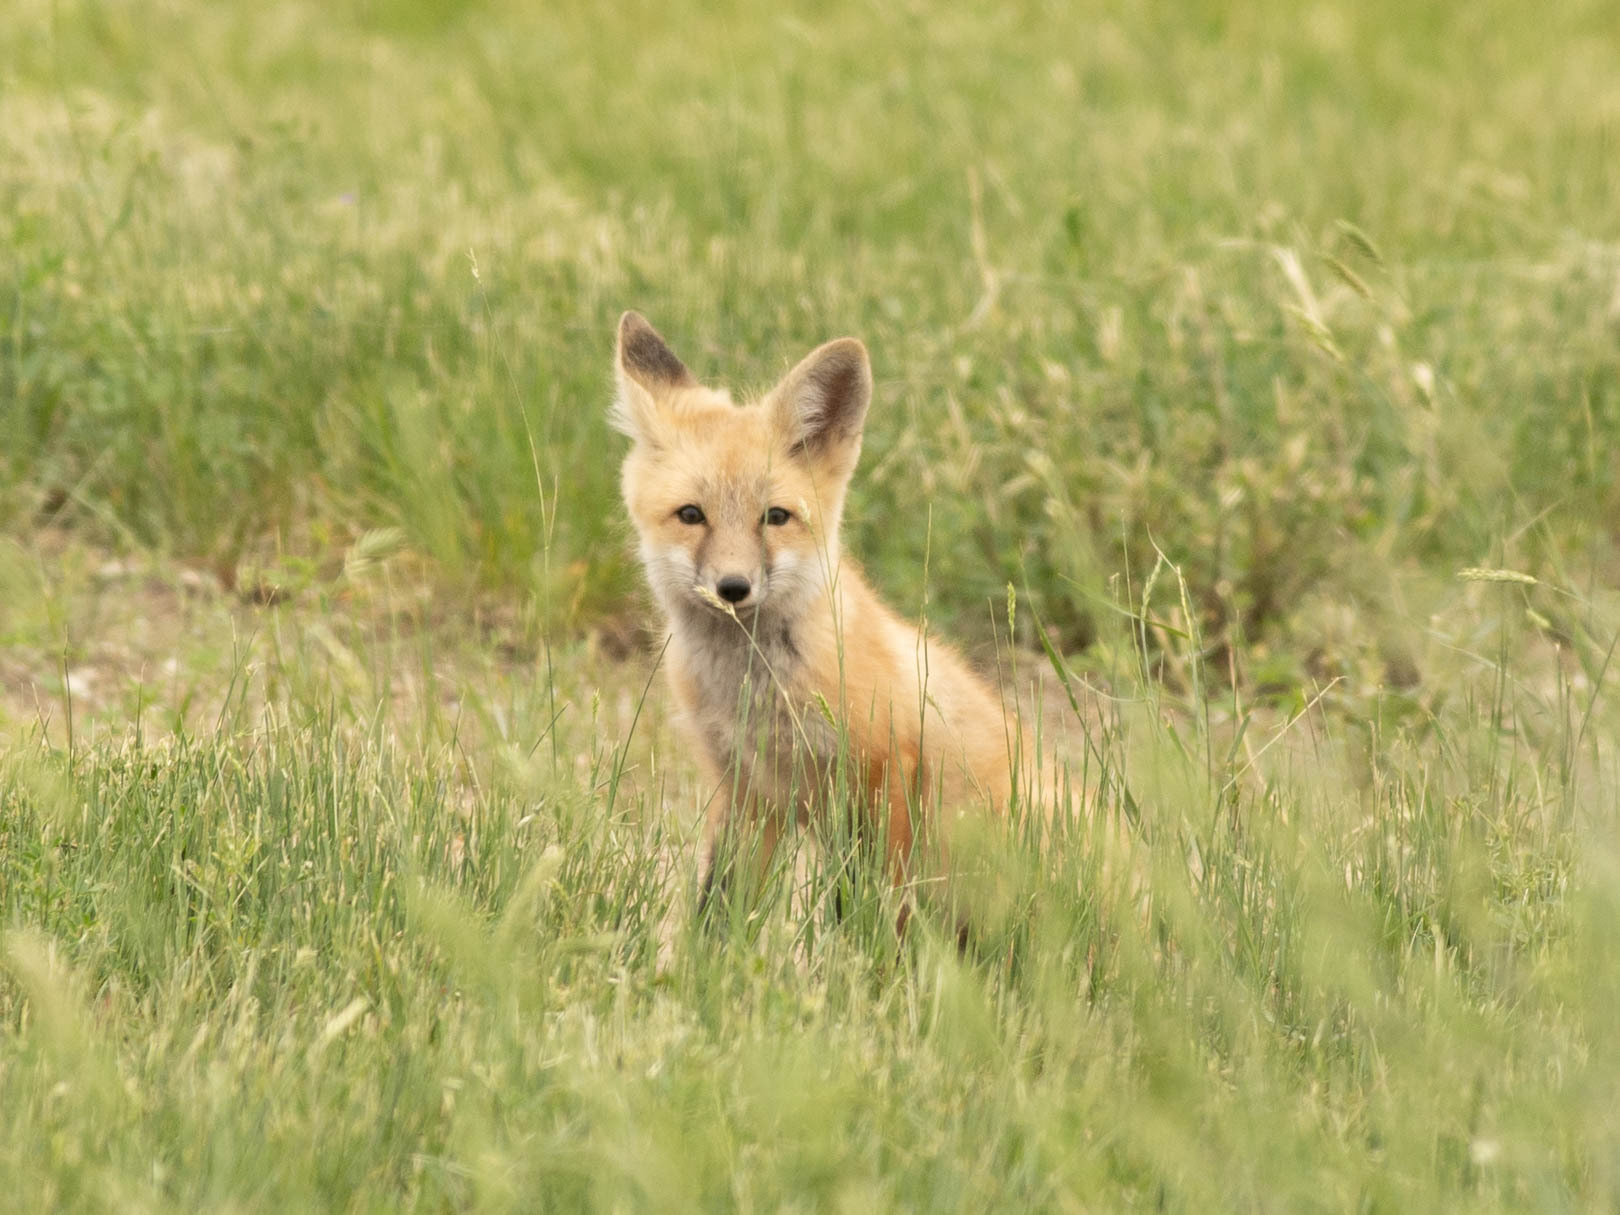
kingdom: Animalia
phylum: Chordata
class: Mammalia
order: Carnivora
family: Canidae
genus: Vulpes
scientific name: Vulpes vulpes
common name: Red fox
